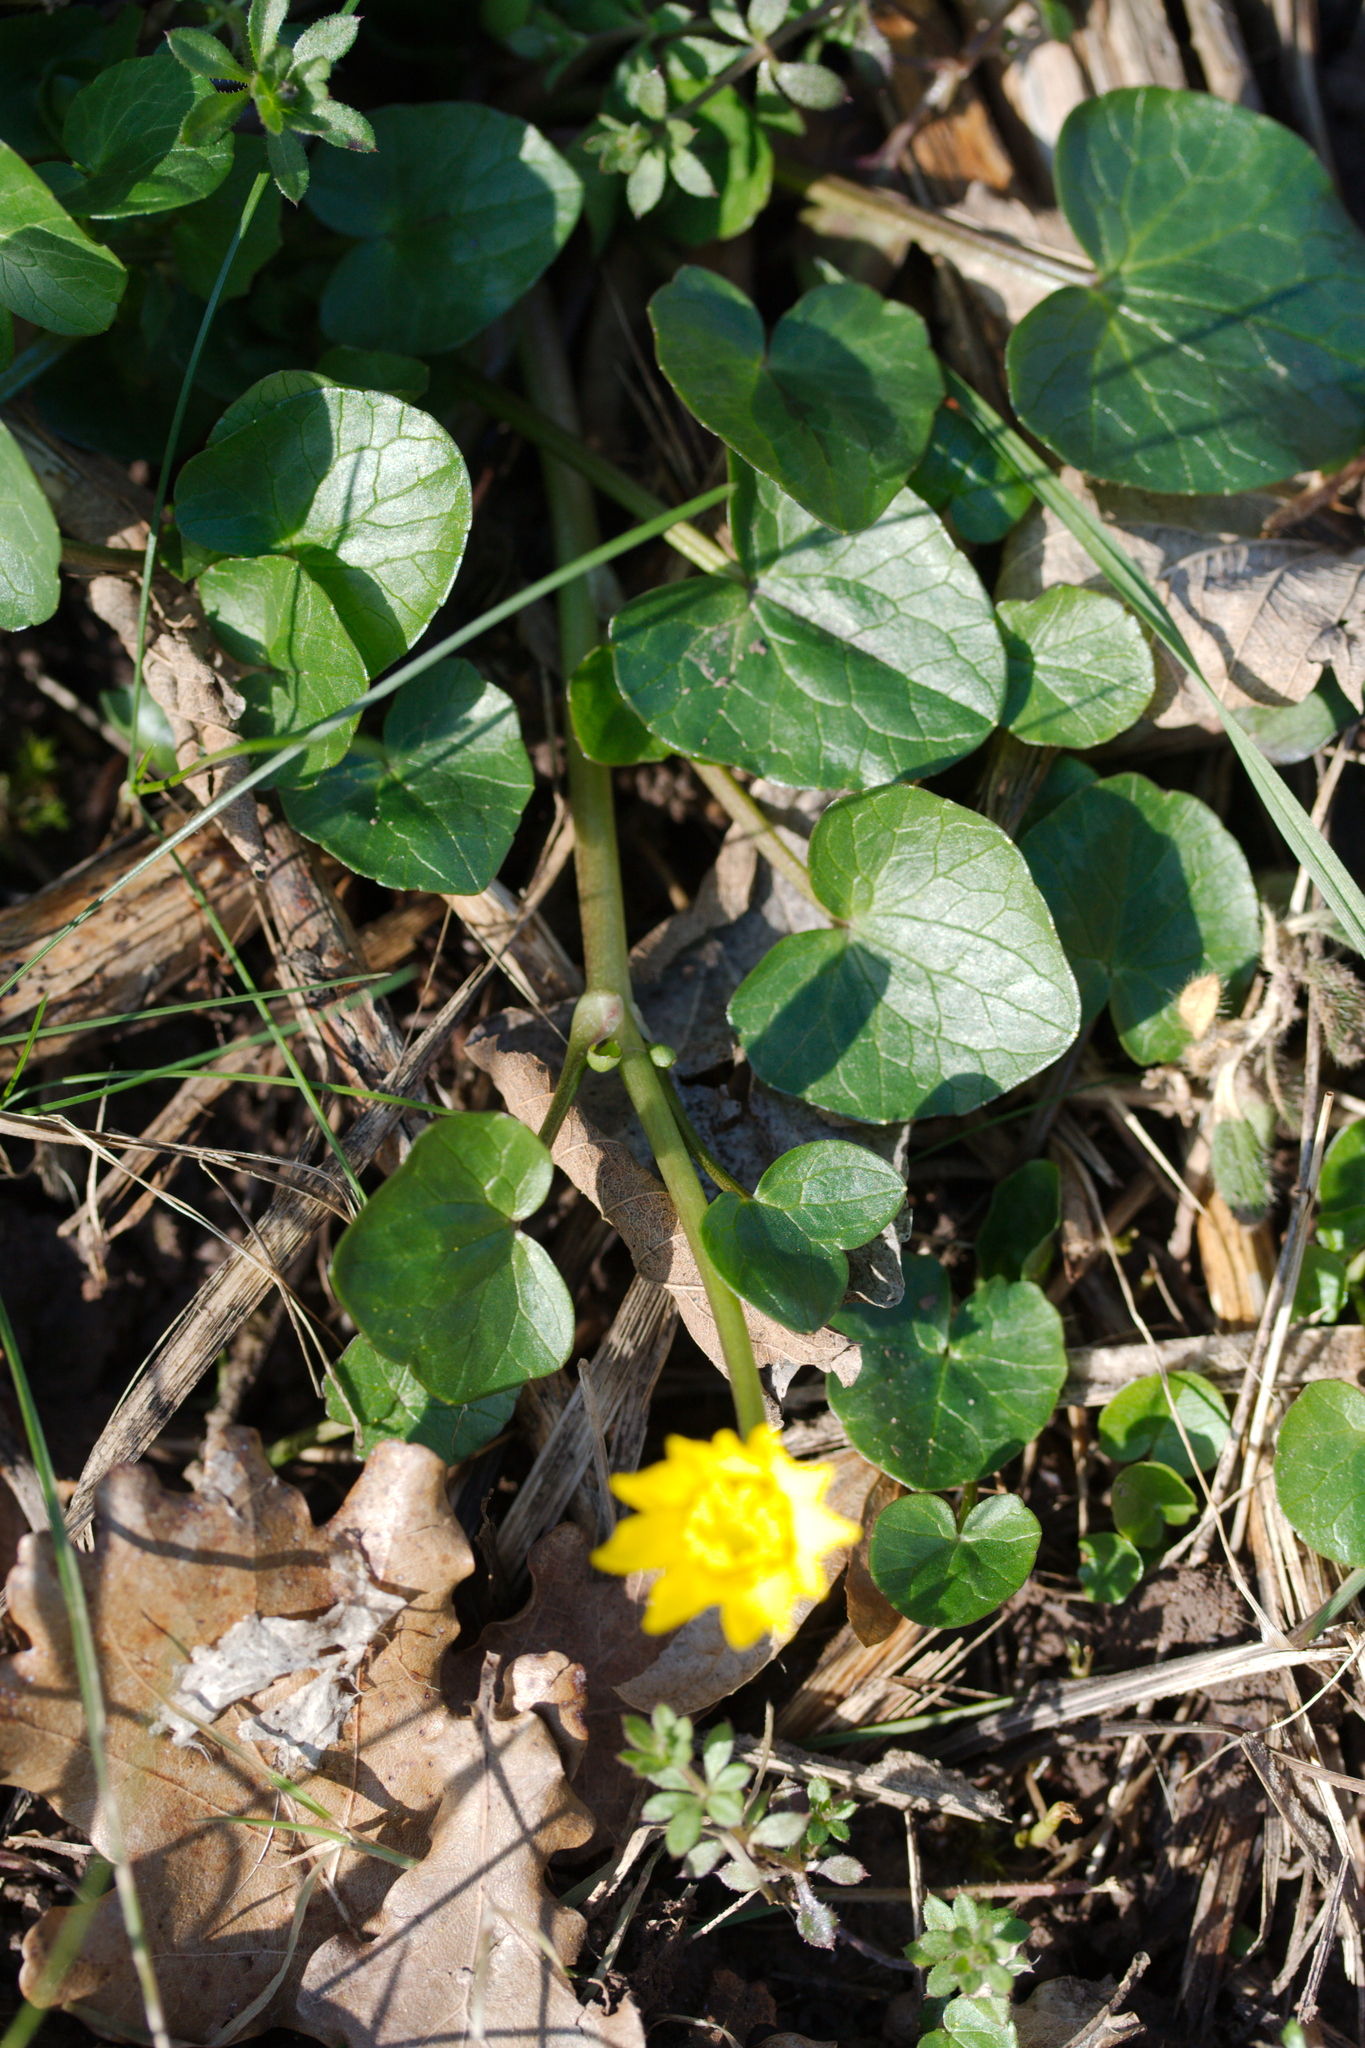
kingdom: Plantae
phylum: Tracheophyta
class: Magnoliopsida
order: Ranunculales
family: Ranunculaceae
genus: Ficaria
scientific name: Ficaria verna
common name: Lesser celandine
